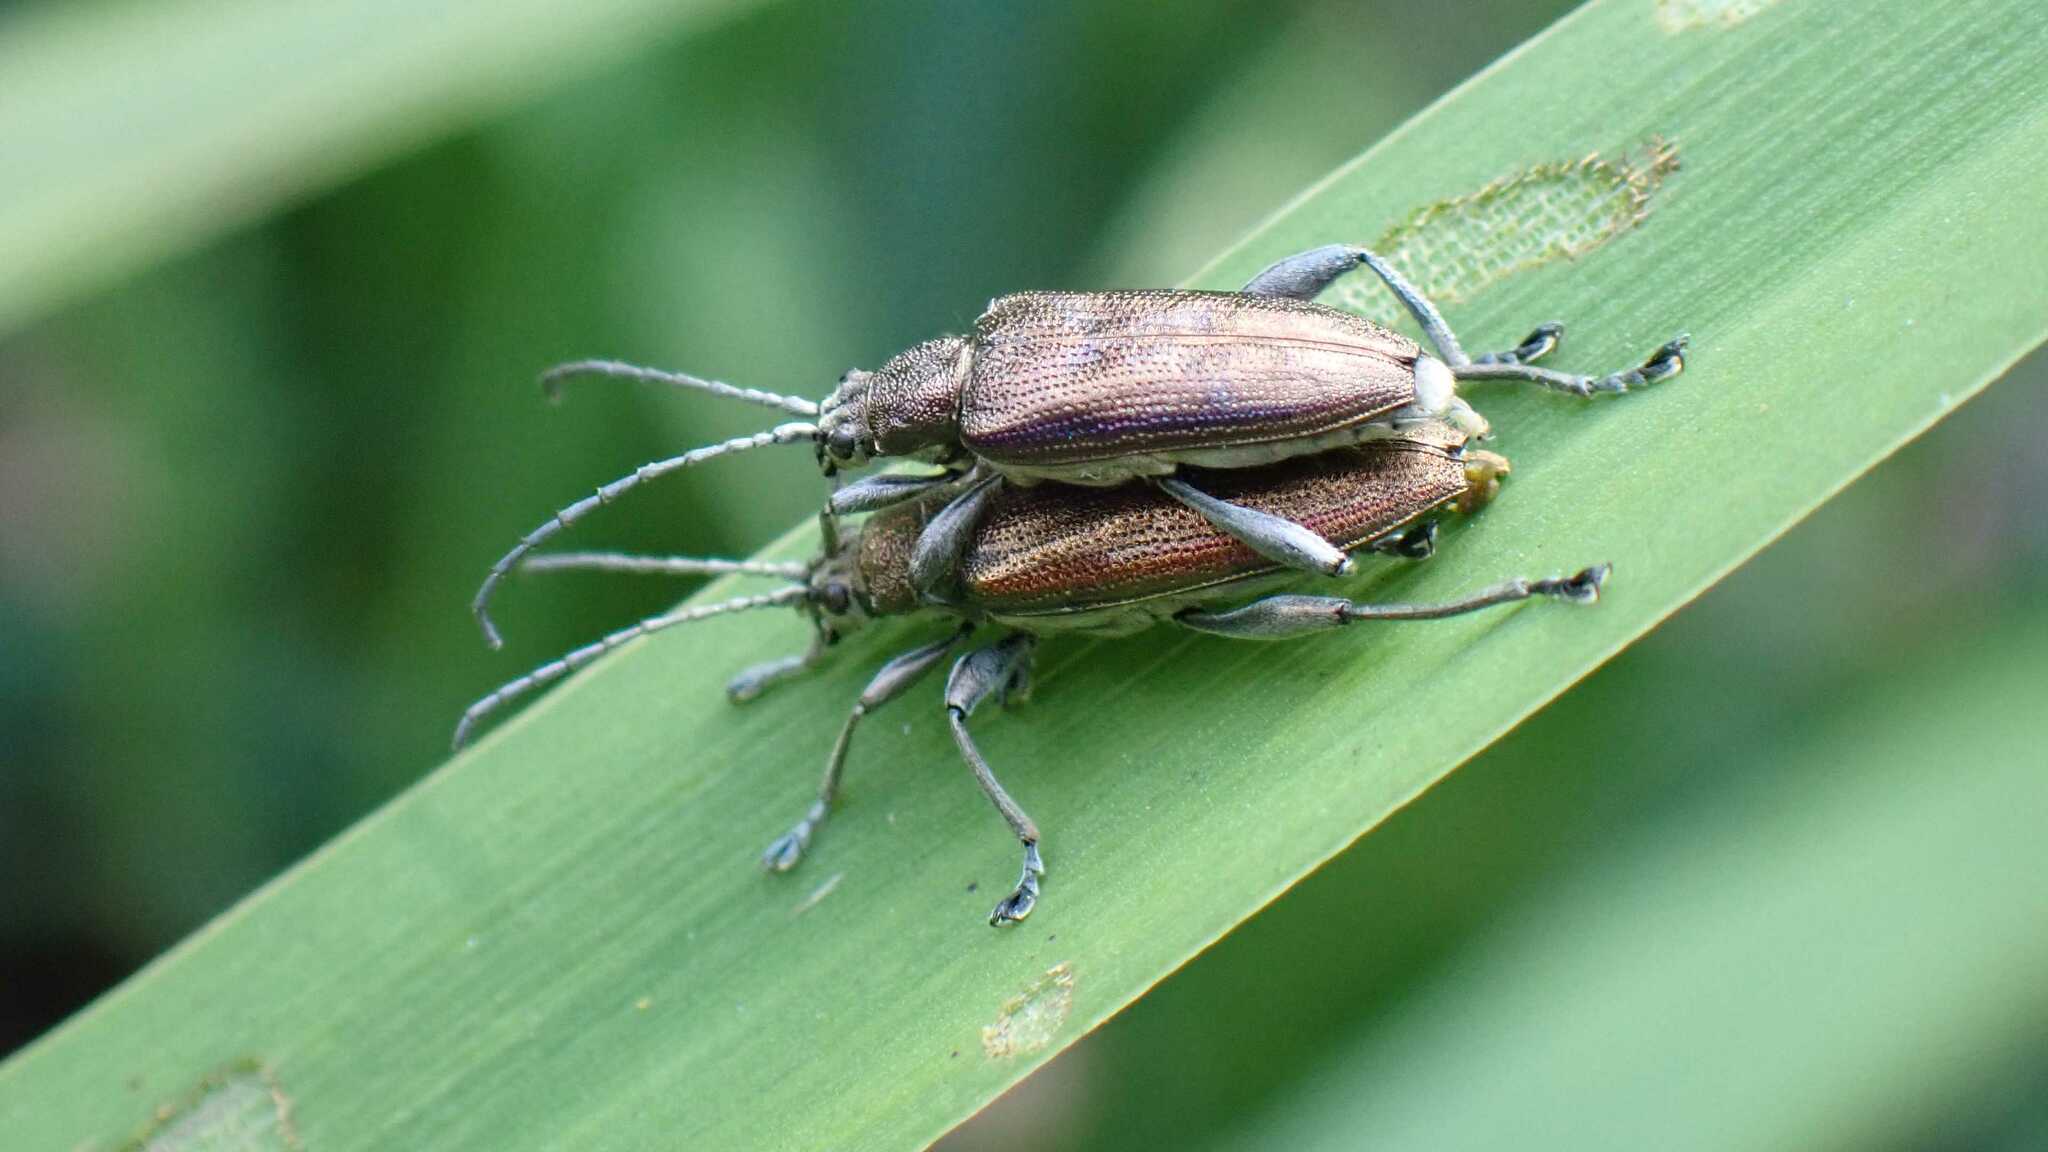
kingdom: Animalia
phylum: Arthropoda
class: Insecta
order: Coleoptera
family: Chrysomelidae
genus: Donacia
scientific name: Donacia marginata
